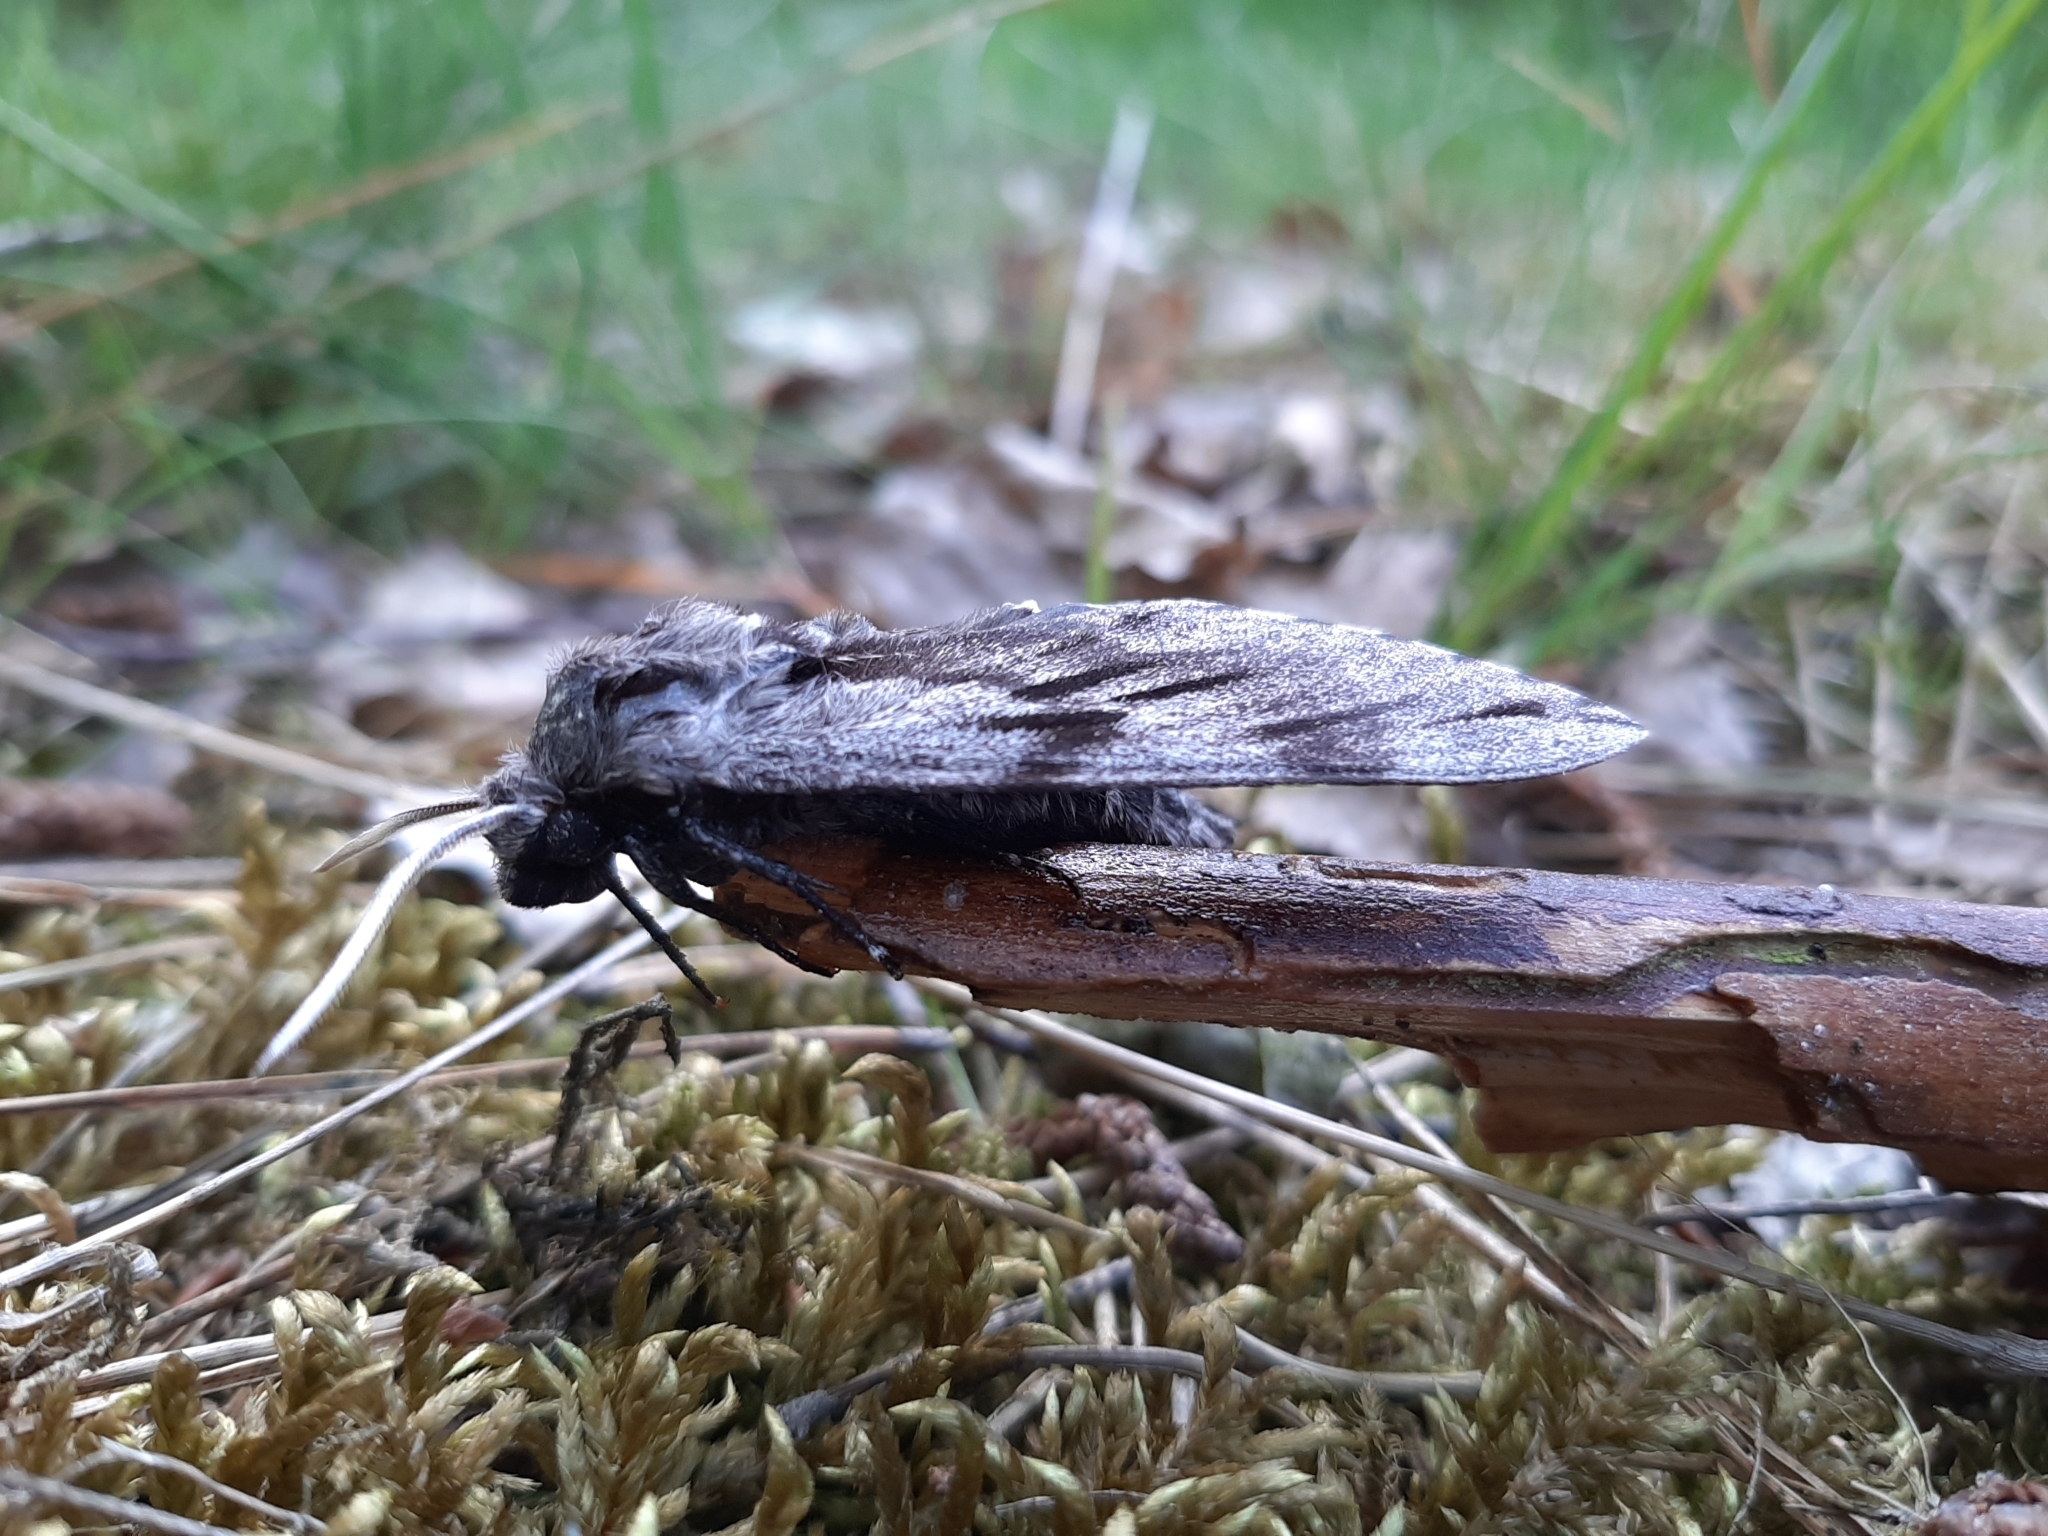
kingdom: Animalia
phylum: Arthropoda
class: Insecta
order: Lepidoptera
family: Sphingidae
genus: Sphinx
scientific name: Sphinx pinastri
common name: Pine hawk-moth
